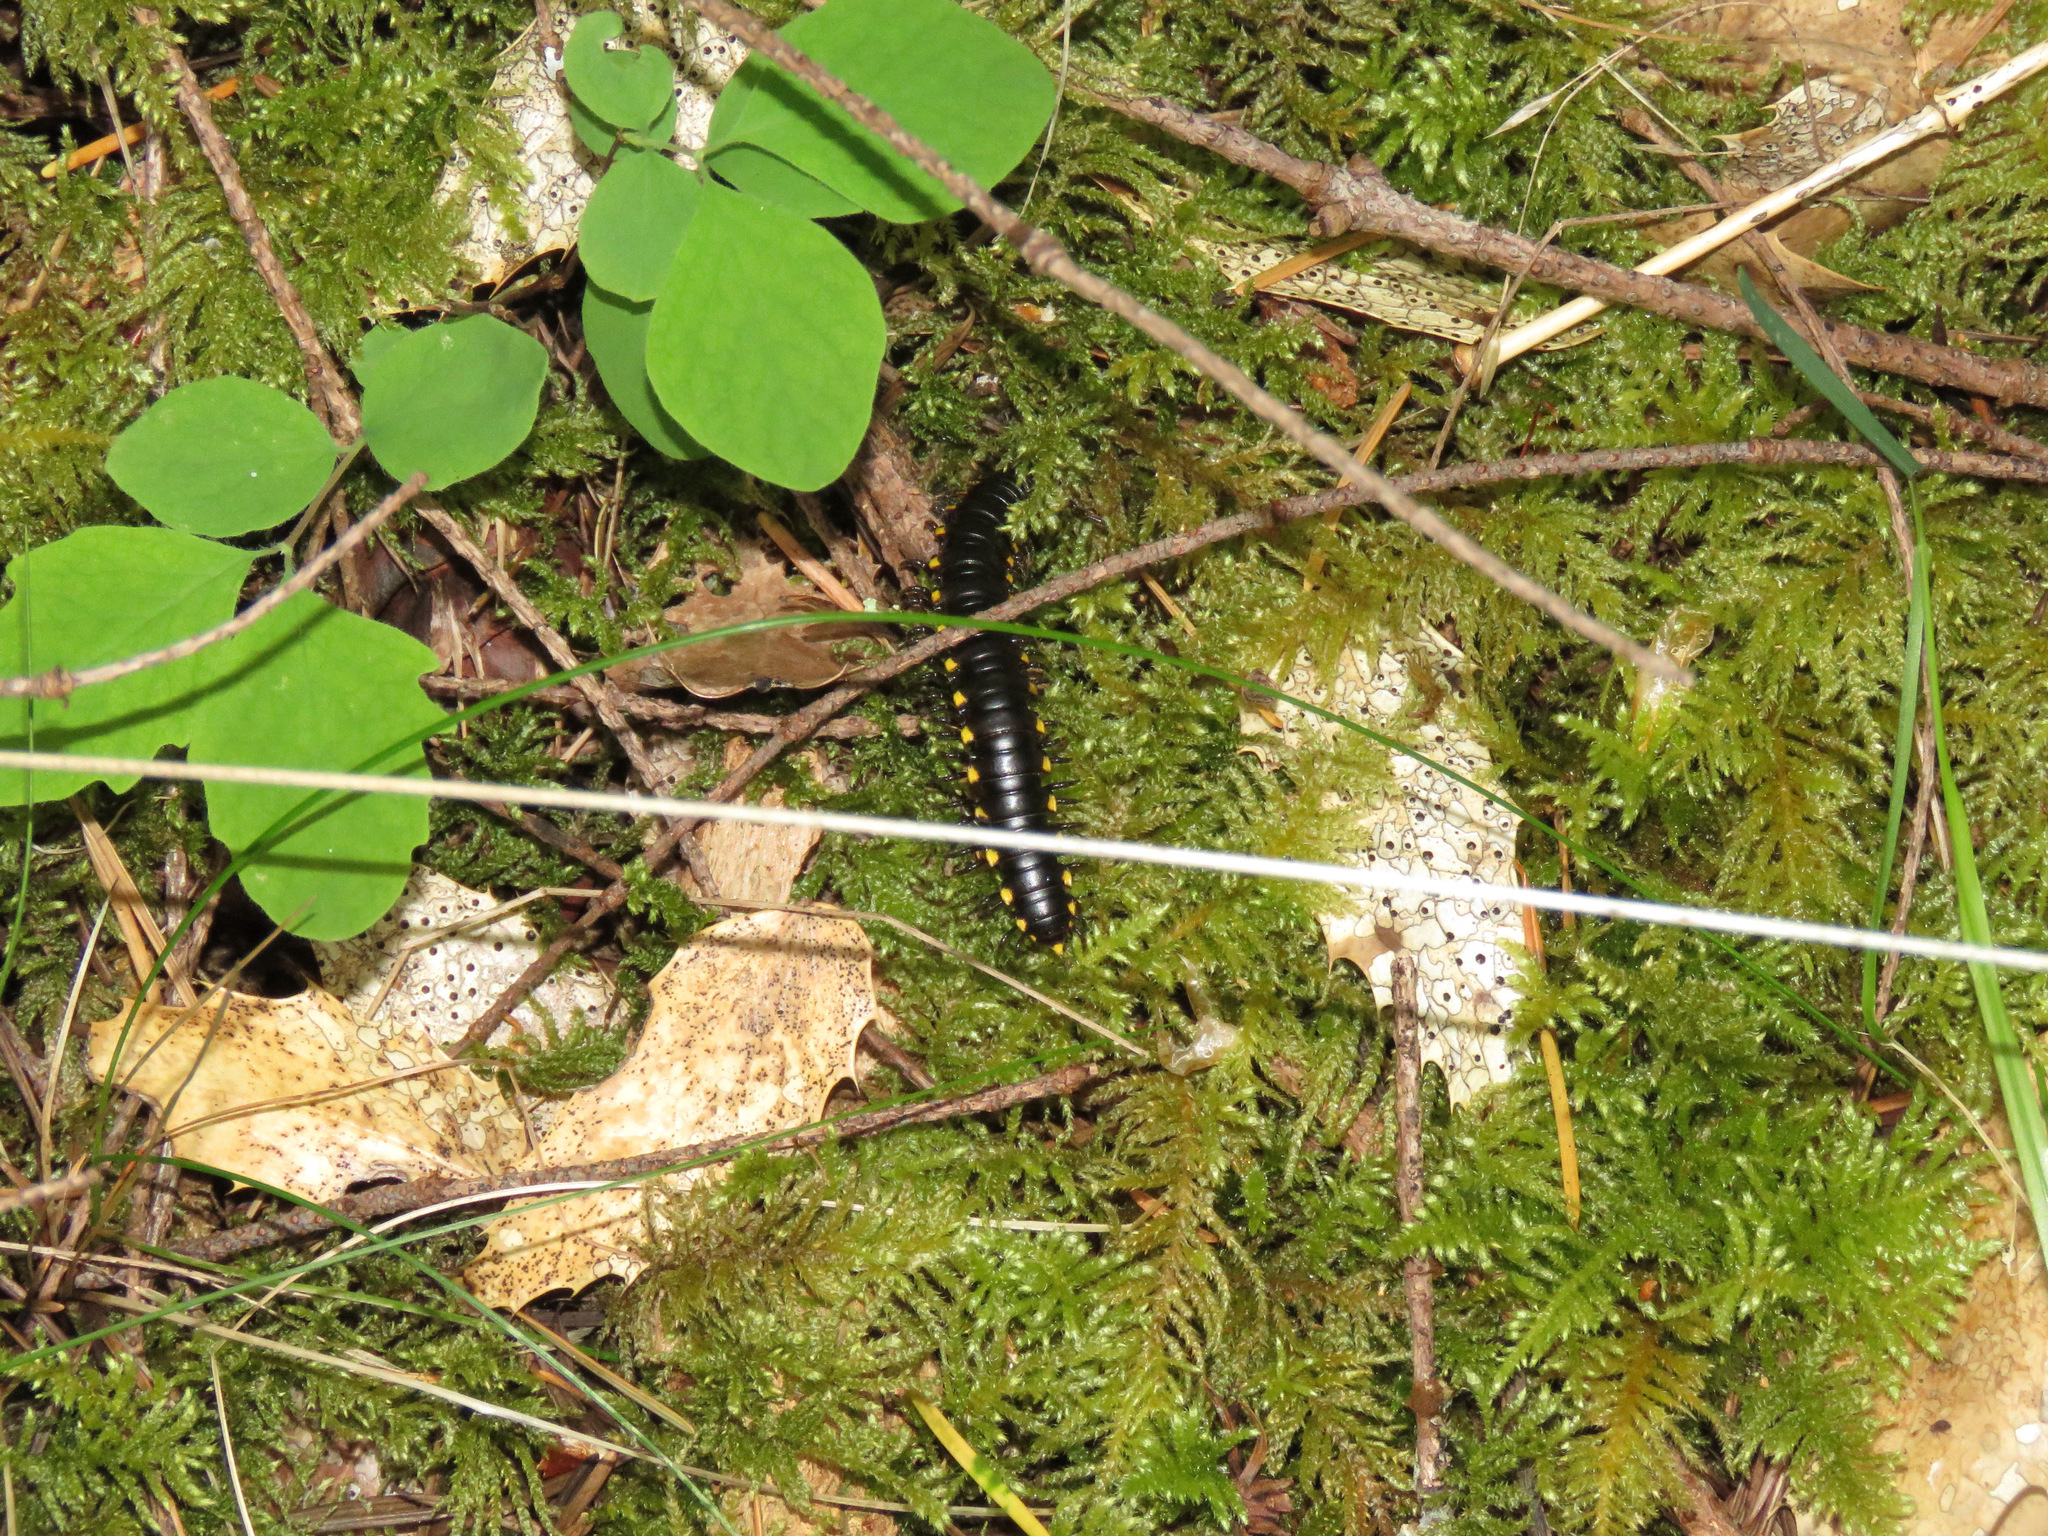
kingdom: Animalia
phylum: Arthropoda
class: Diplopoda
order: Polydesmida
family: Xystodesmidae
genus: Harpaphe
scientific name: Harpaphe haydeniana
